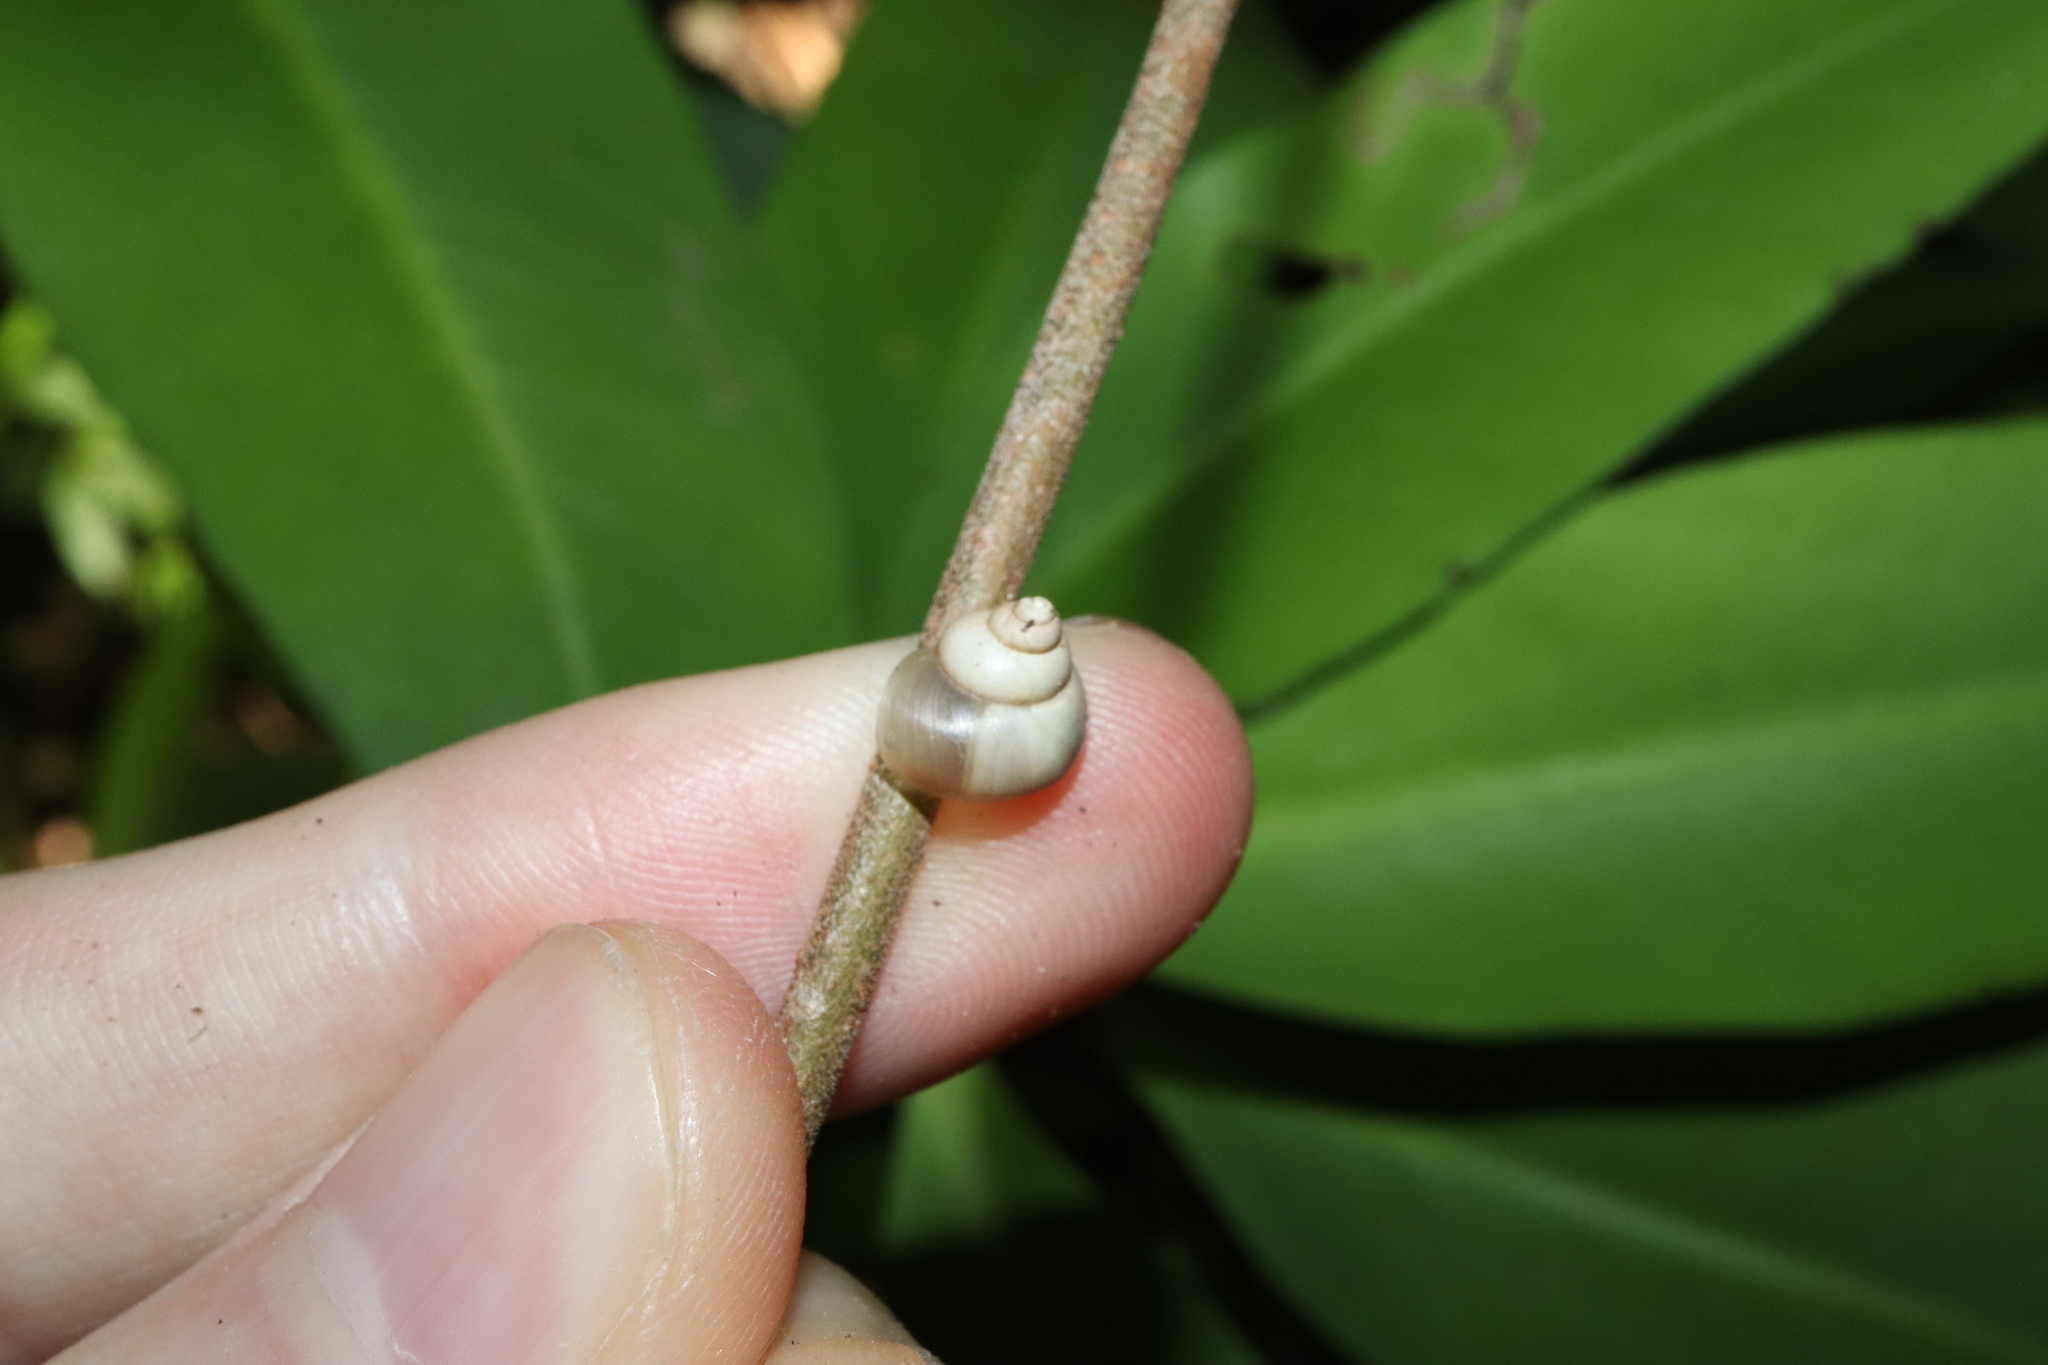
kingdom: Animalia
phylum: Mollusca
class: Gastropoda
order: Architaenioglossa
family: Cyclophoridae
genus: Leptopoma
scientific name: Leptopoma perlucidum
